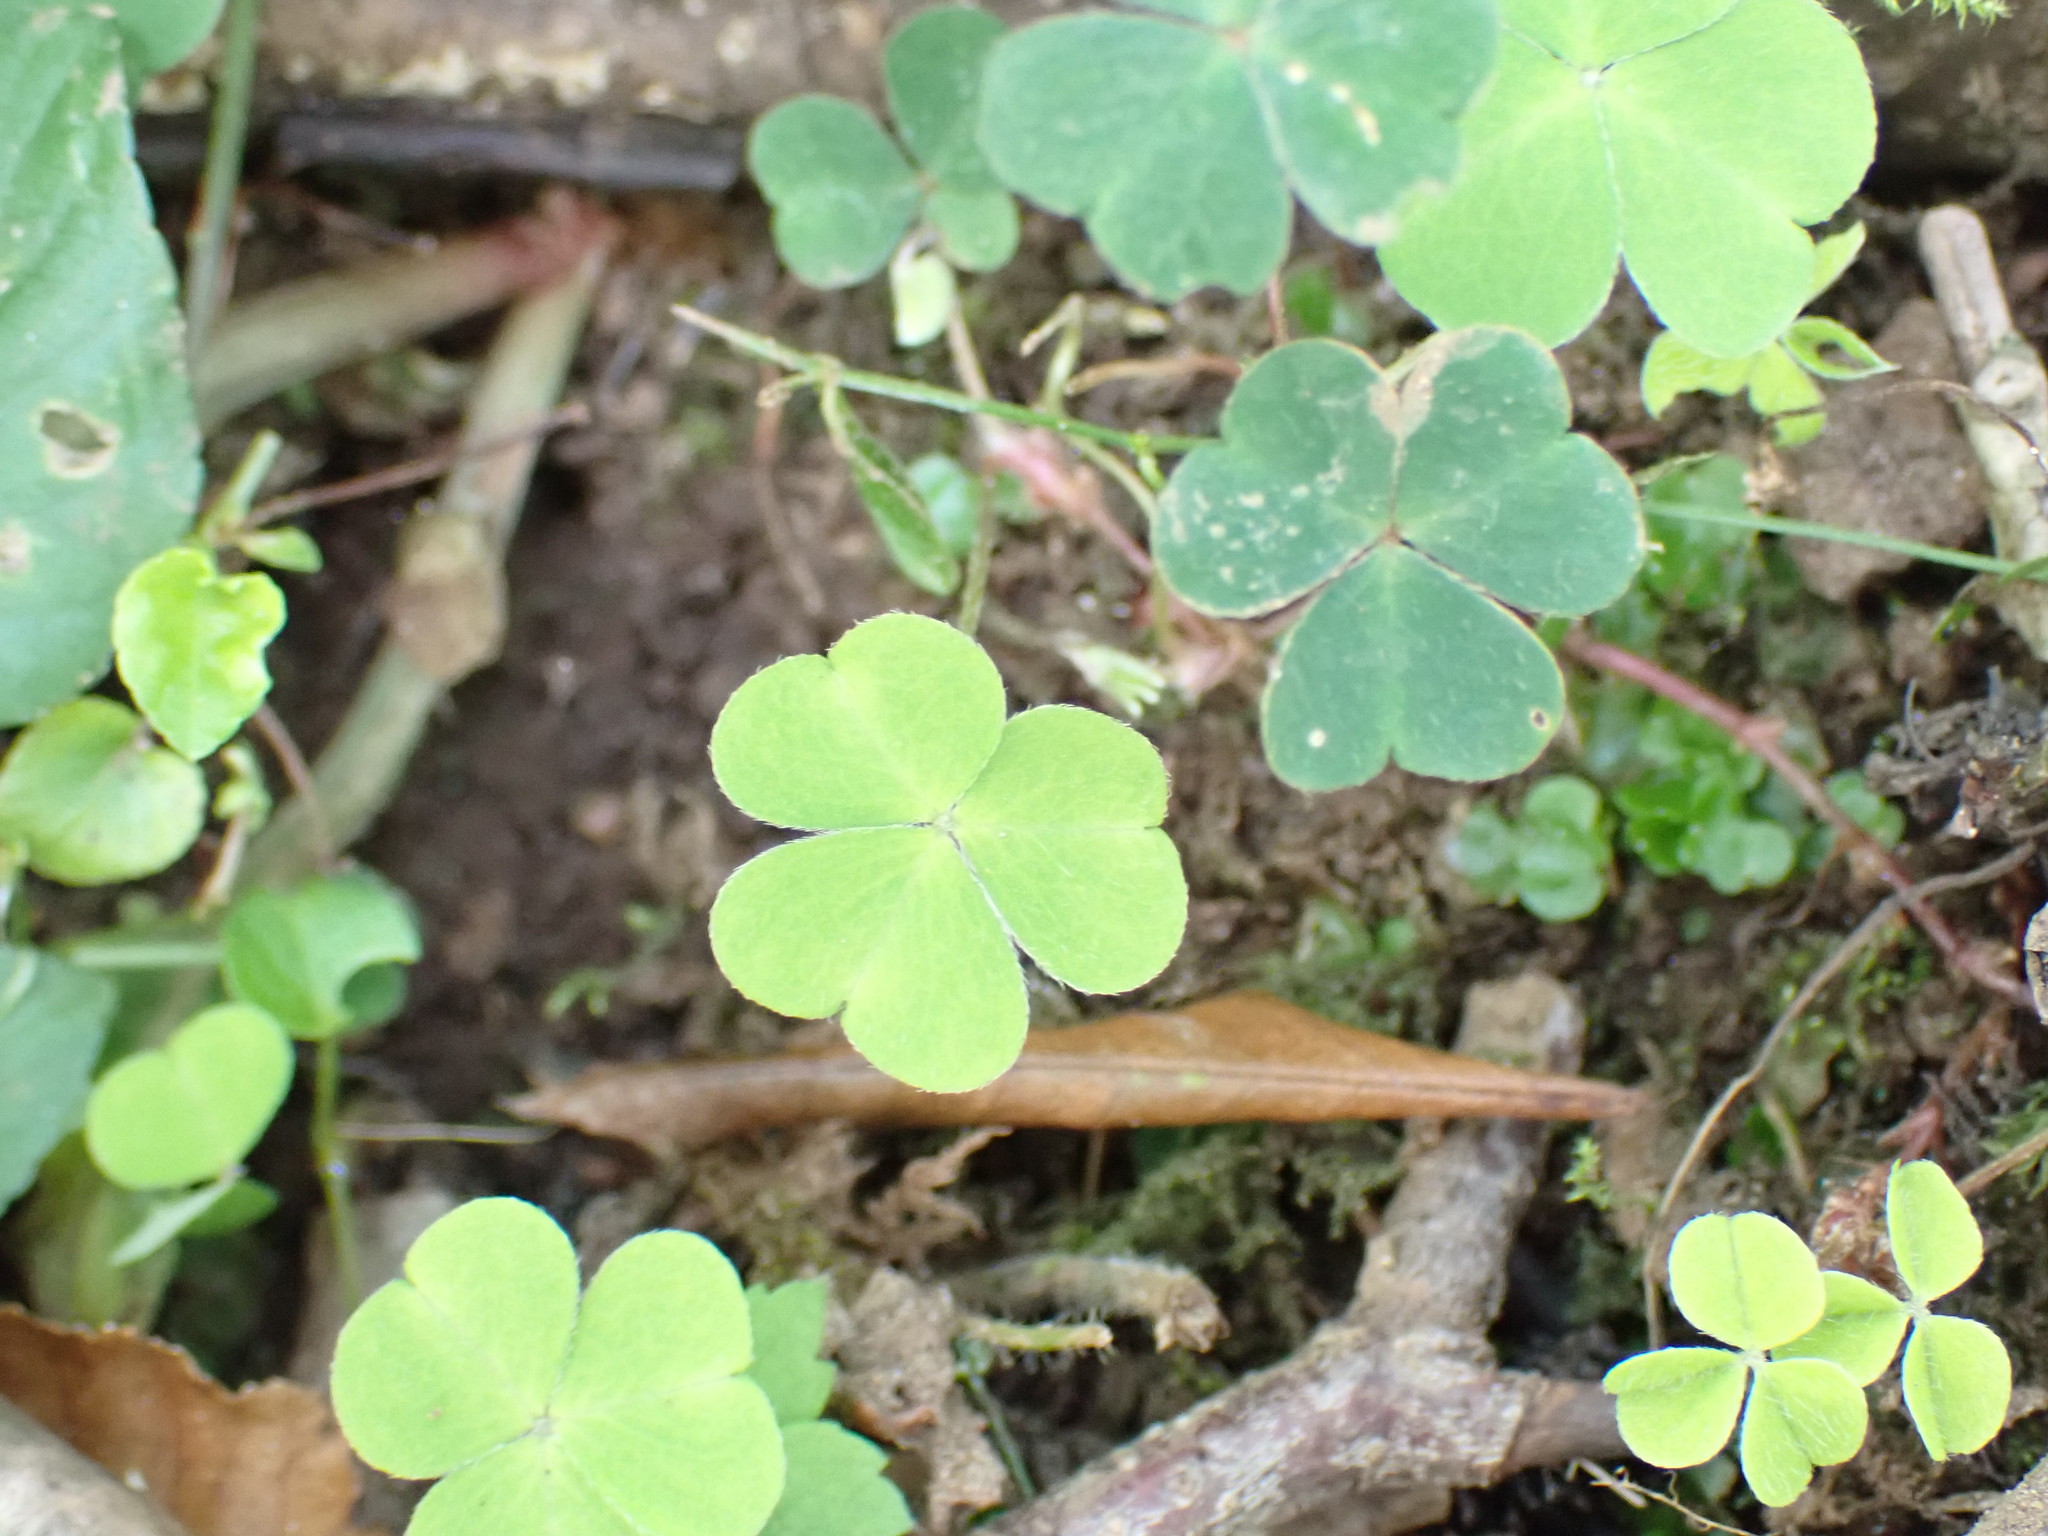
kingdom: Plantae
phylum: Tracheophyta
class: Magnoliopsida
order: Oxalidales
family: Oxalidaceae
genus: Oxalis
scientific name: Oxalis acetosella
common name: Wood-sorrel
